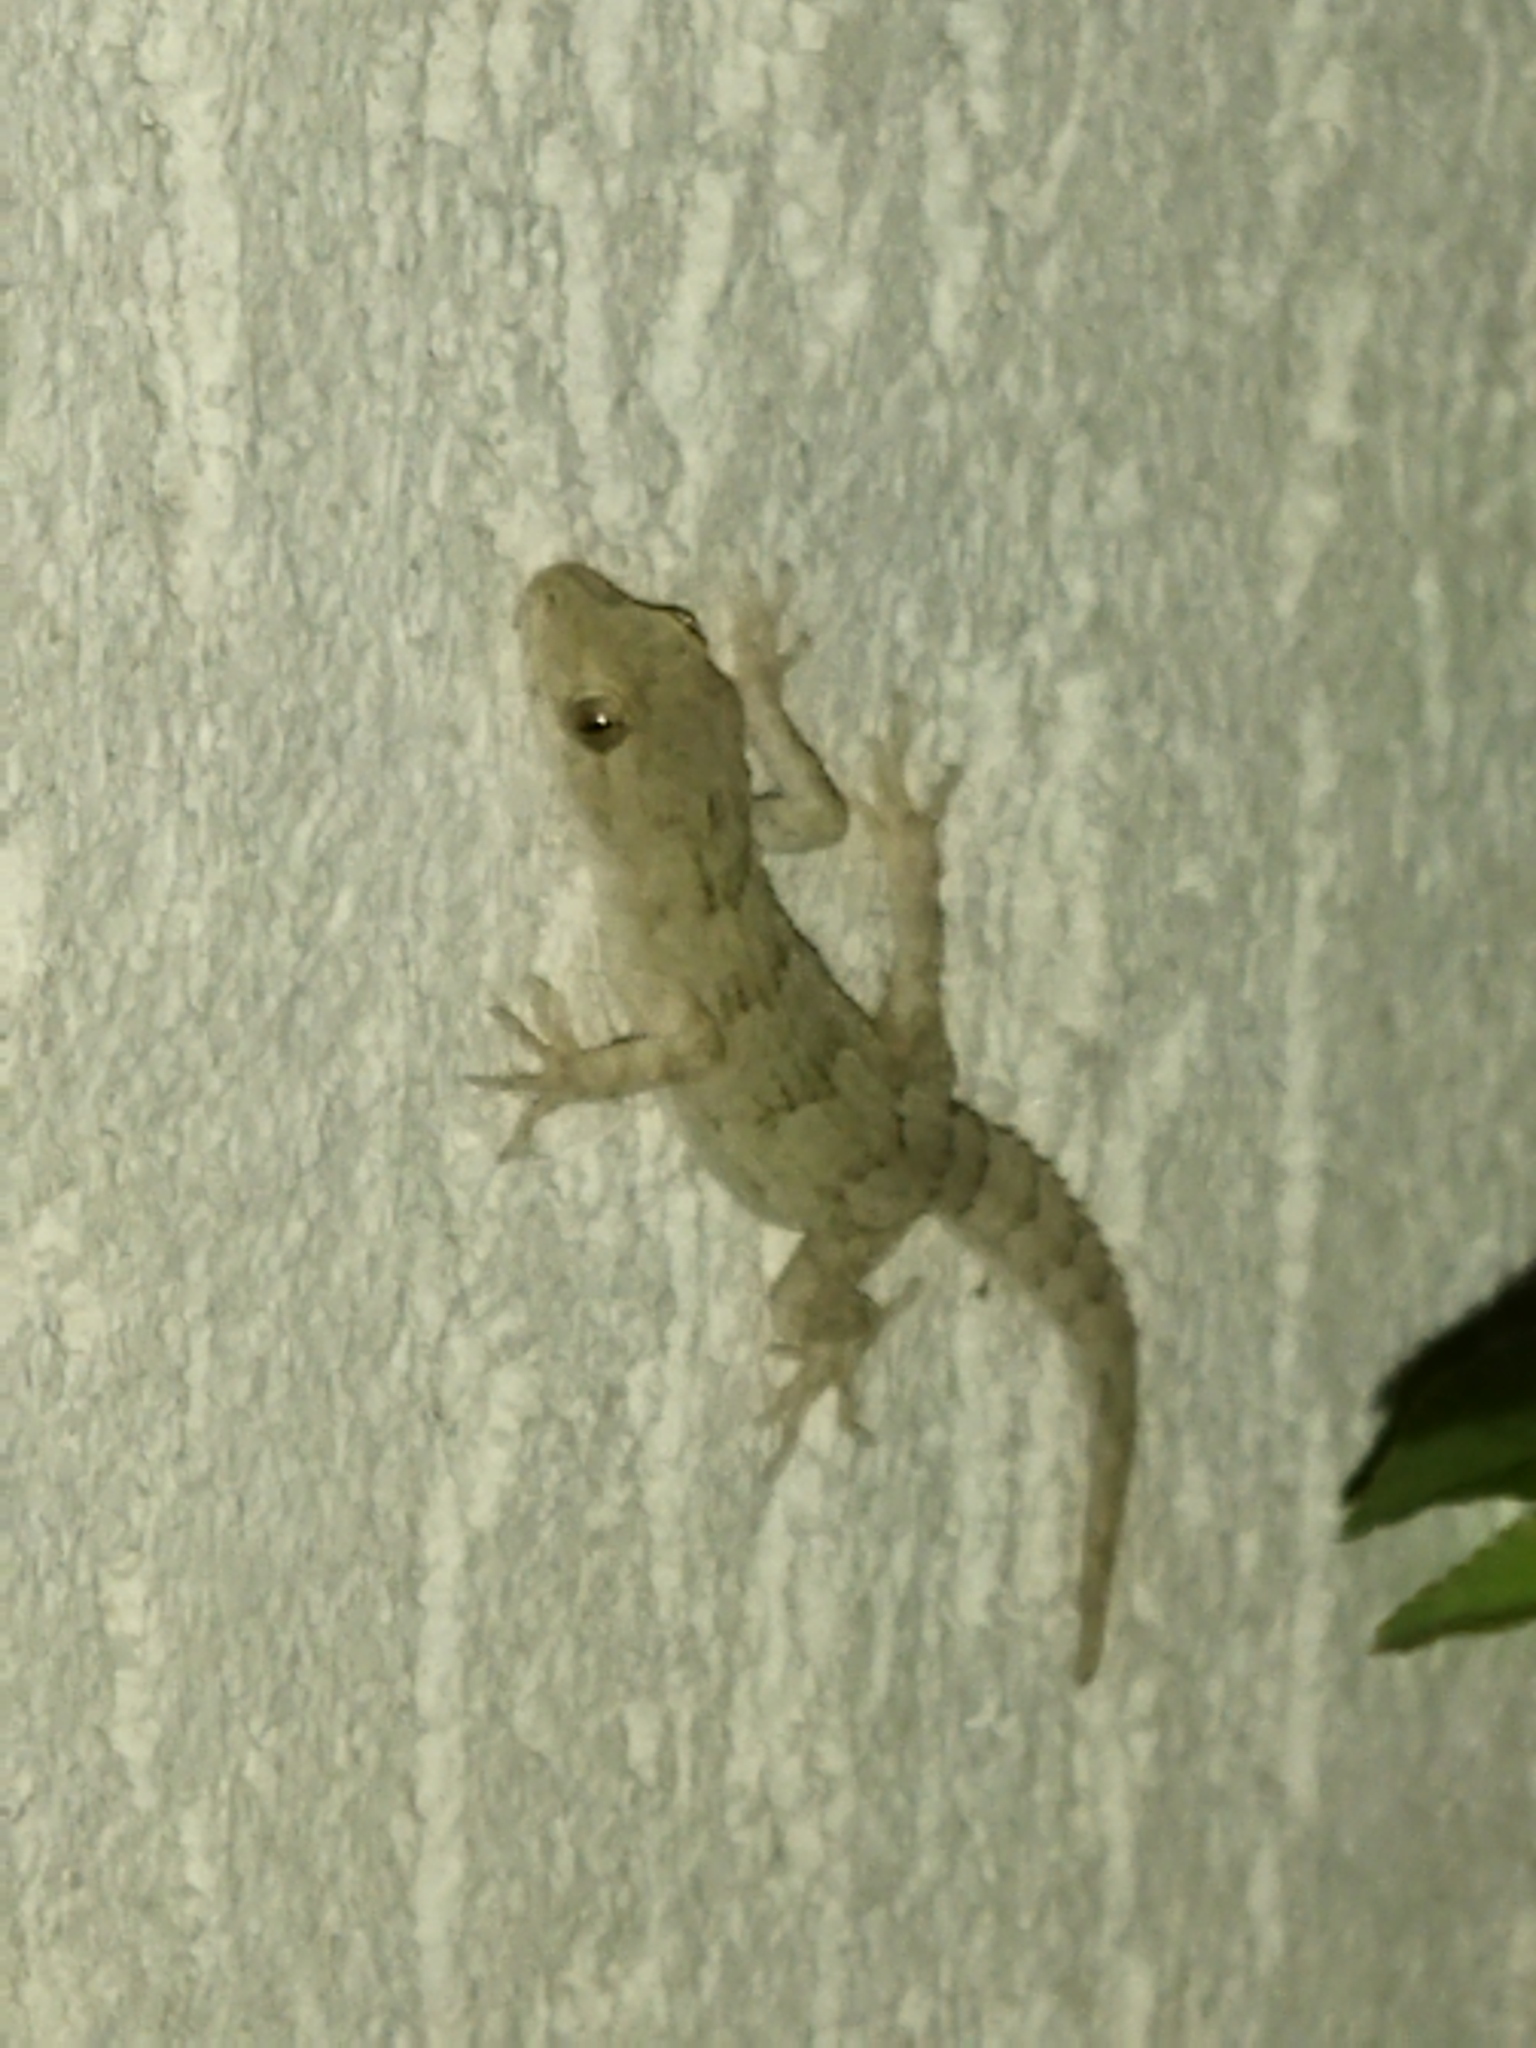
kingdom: Animalia
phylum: Chordata
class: Squamata
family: Gekkonidae
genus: Mediodactylus
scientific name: Mediodactylus kotschyi
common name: Kotschy's gecko
